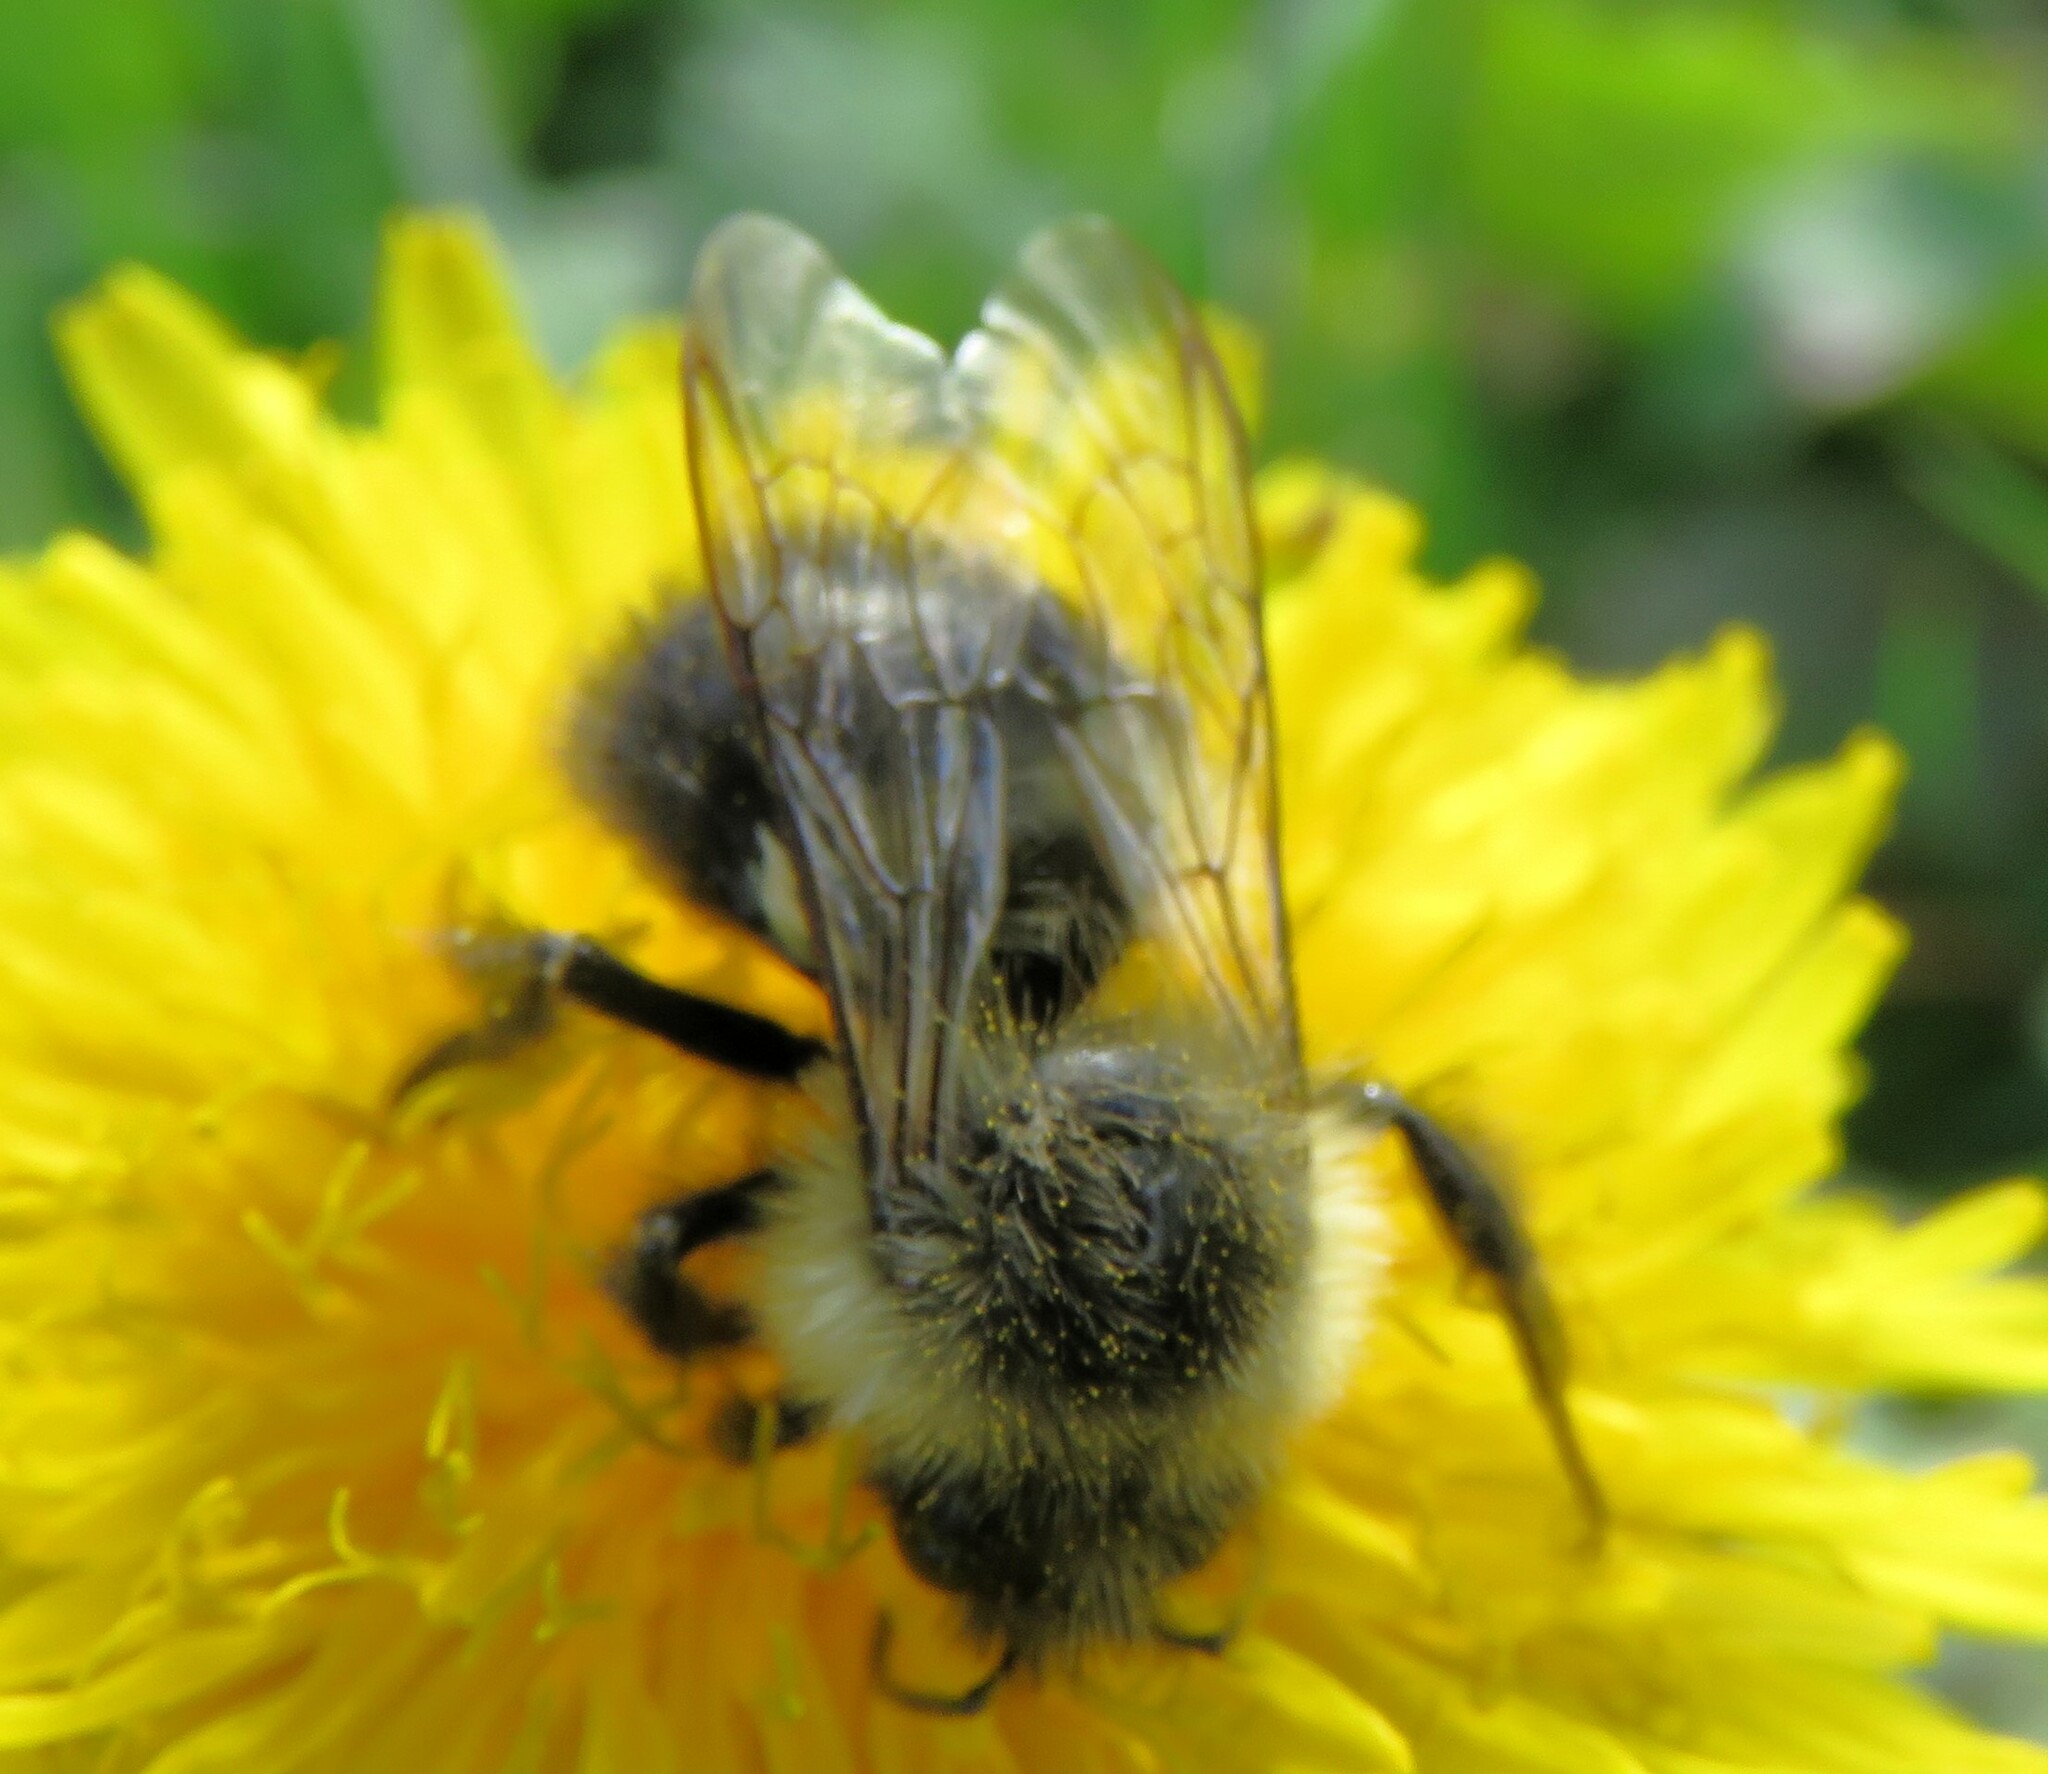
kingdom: Animalia
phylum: Arthropoda
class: Insecta
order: Hymenoptera
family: Apidae
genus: Bombus
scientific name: Bombus impatiens
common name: Common eastern bumble bee
